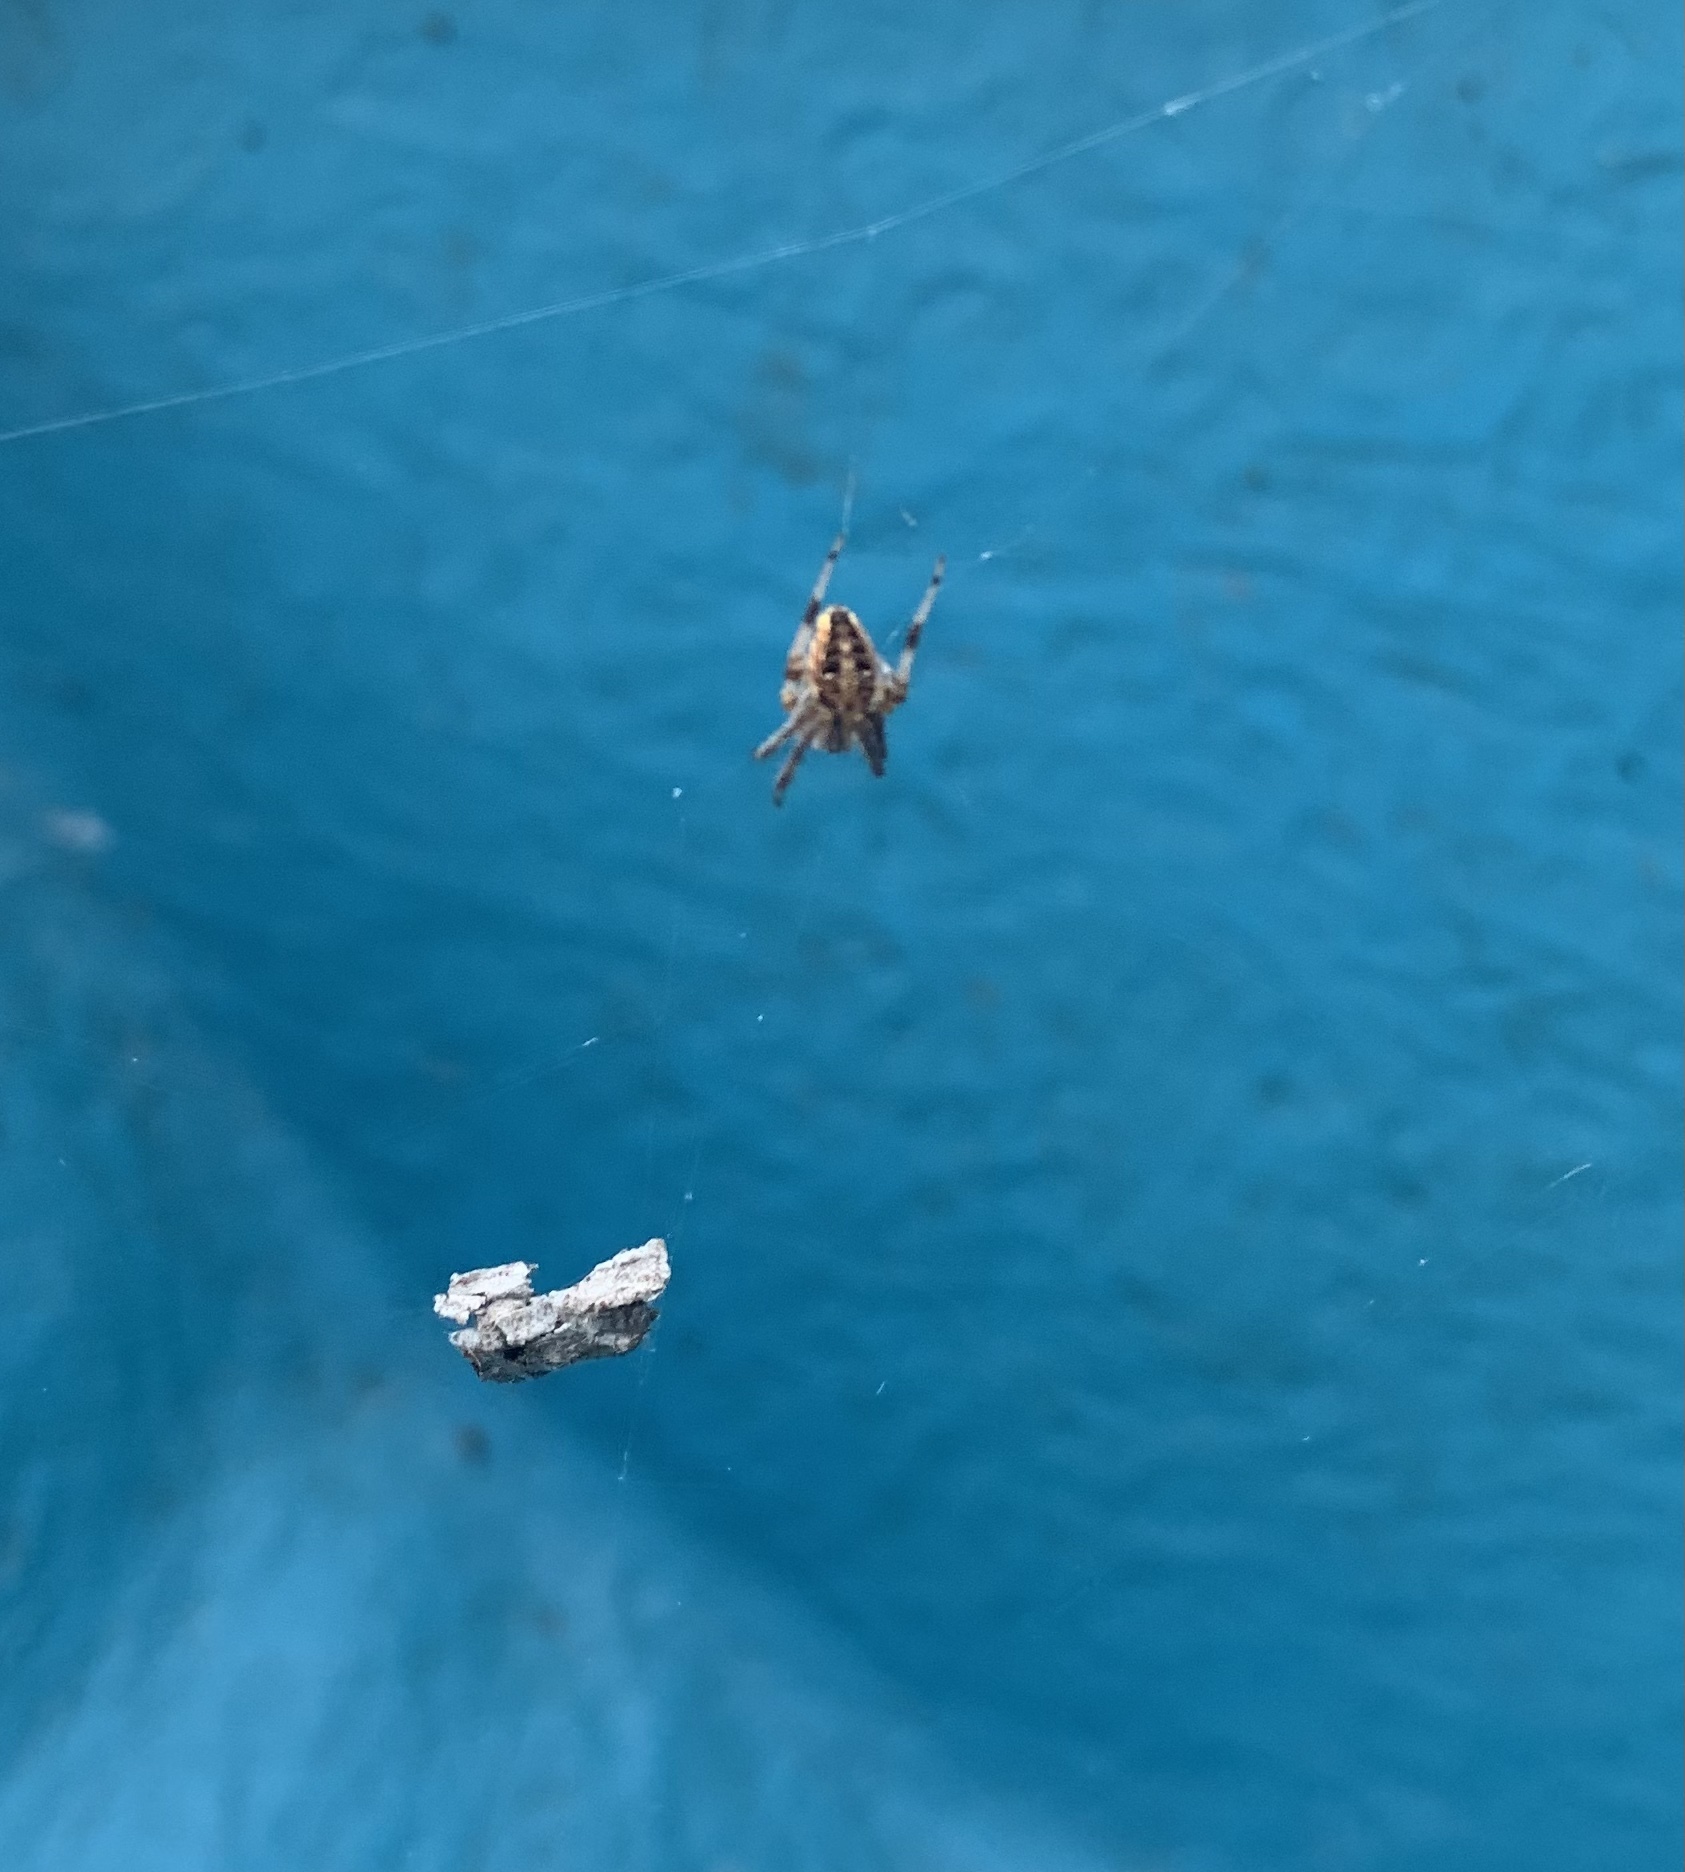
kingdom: Animalia
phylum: Arthropoda
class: Arachnida
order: Araneae
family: Araneidae
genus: Neoscona
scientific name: Neoscona arabesca
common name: Orb weavers
